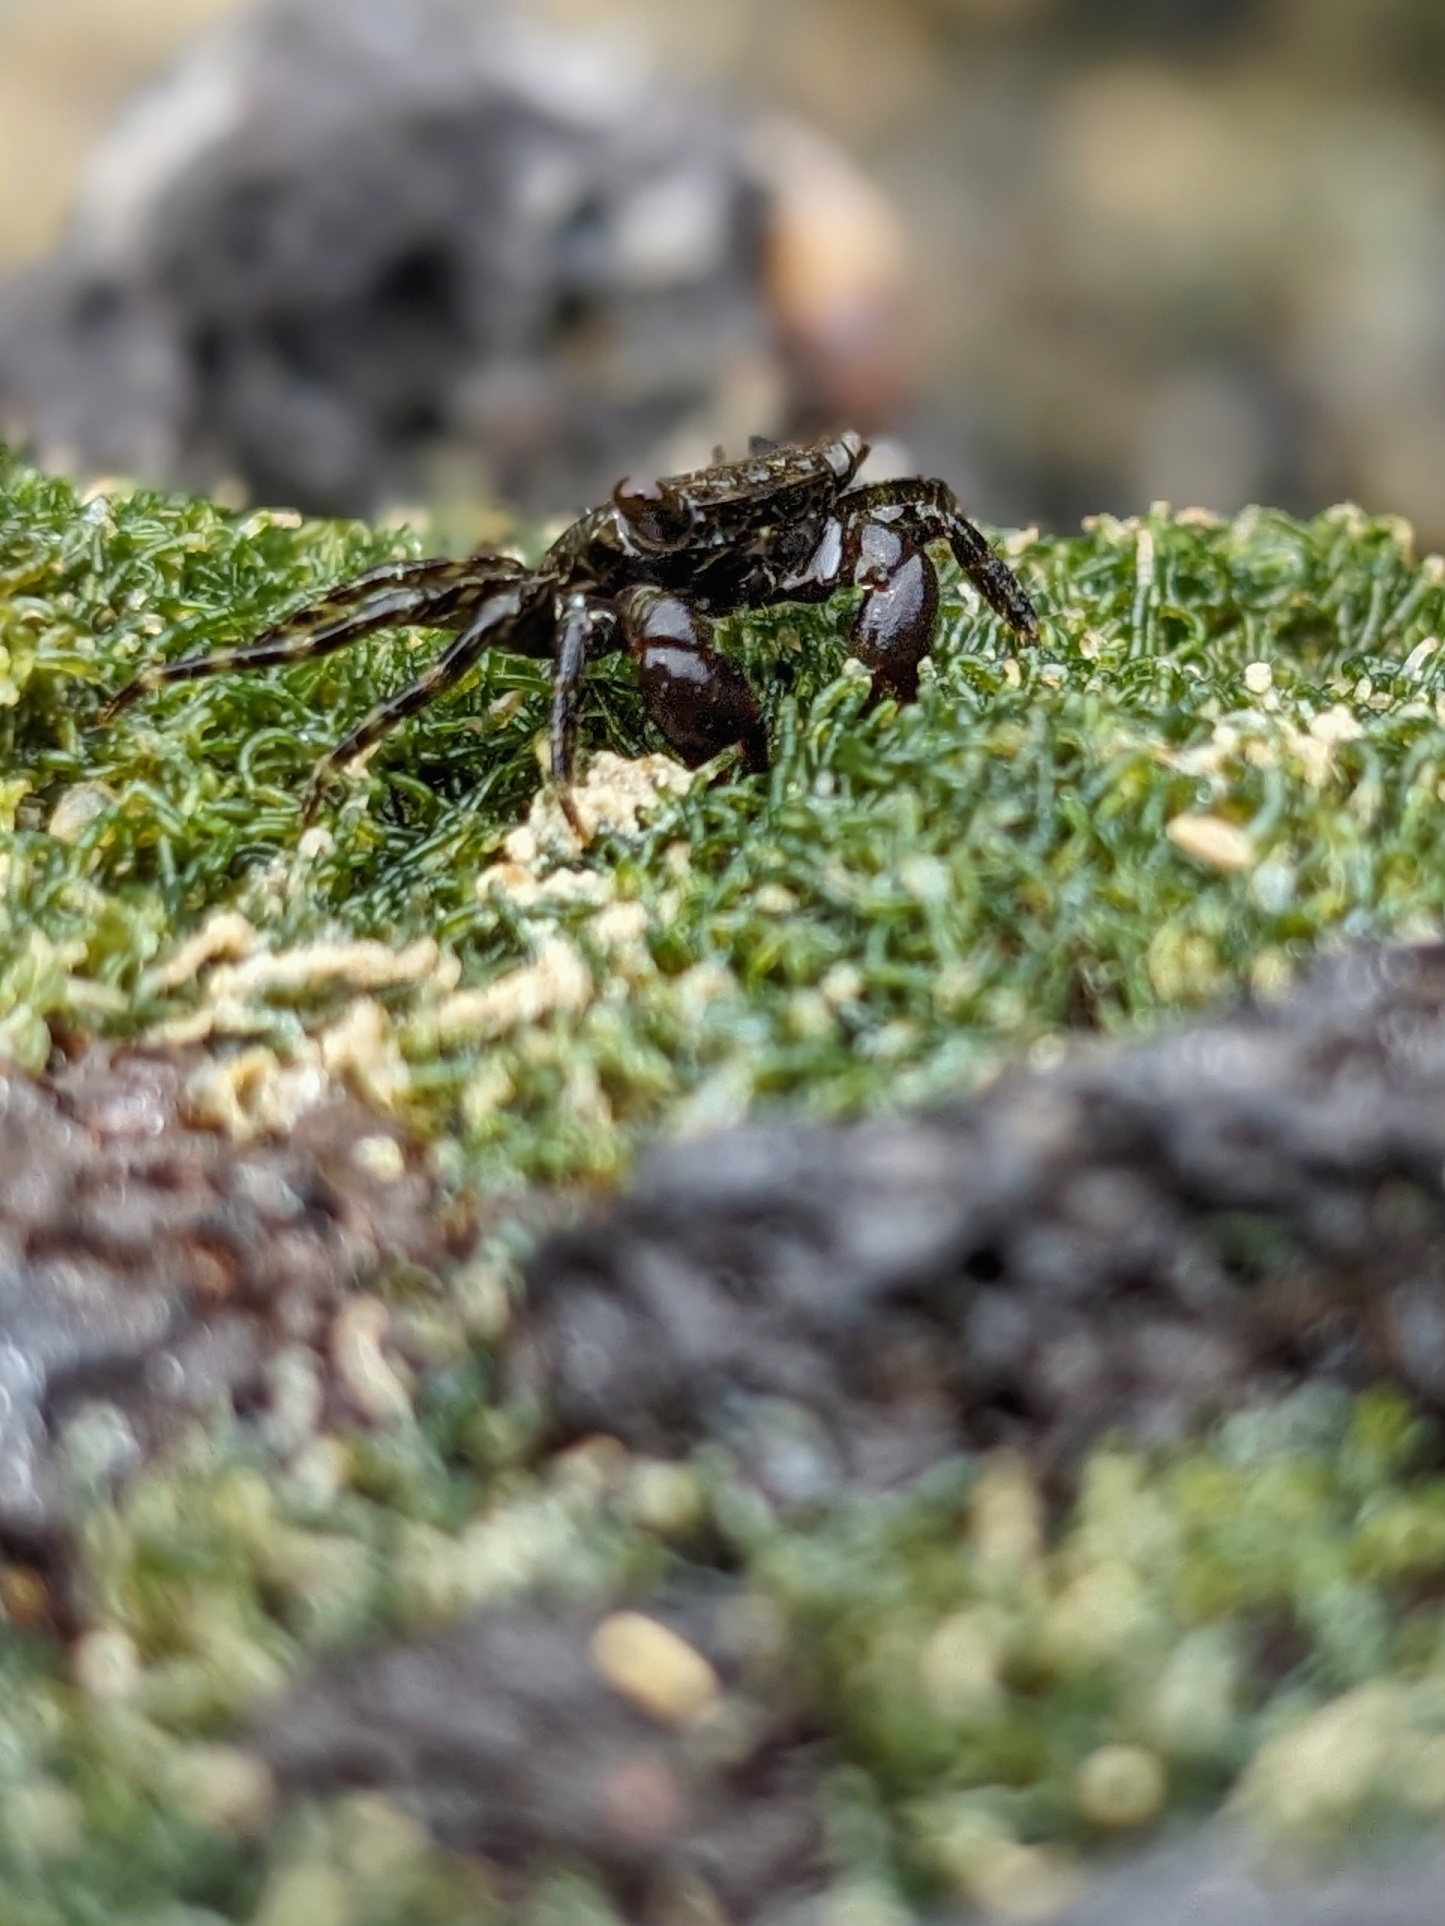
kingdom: Animalia
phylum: Arthropoda
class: Malacostraca
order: Decapoda
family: Grapsidae
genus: Metopograpsus
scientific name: Metopograpsus thukuhar
